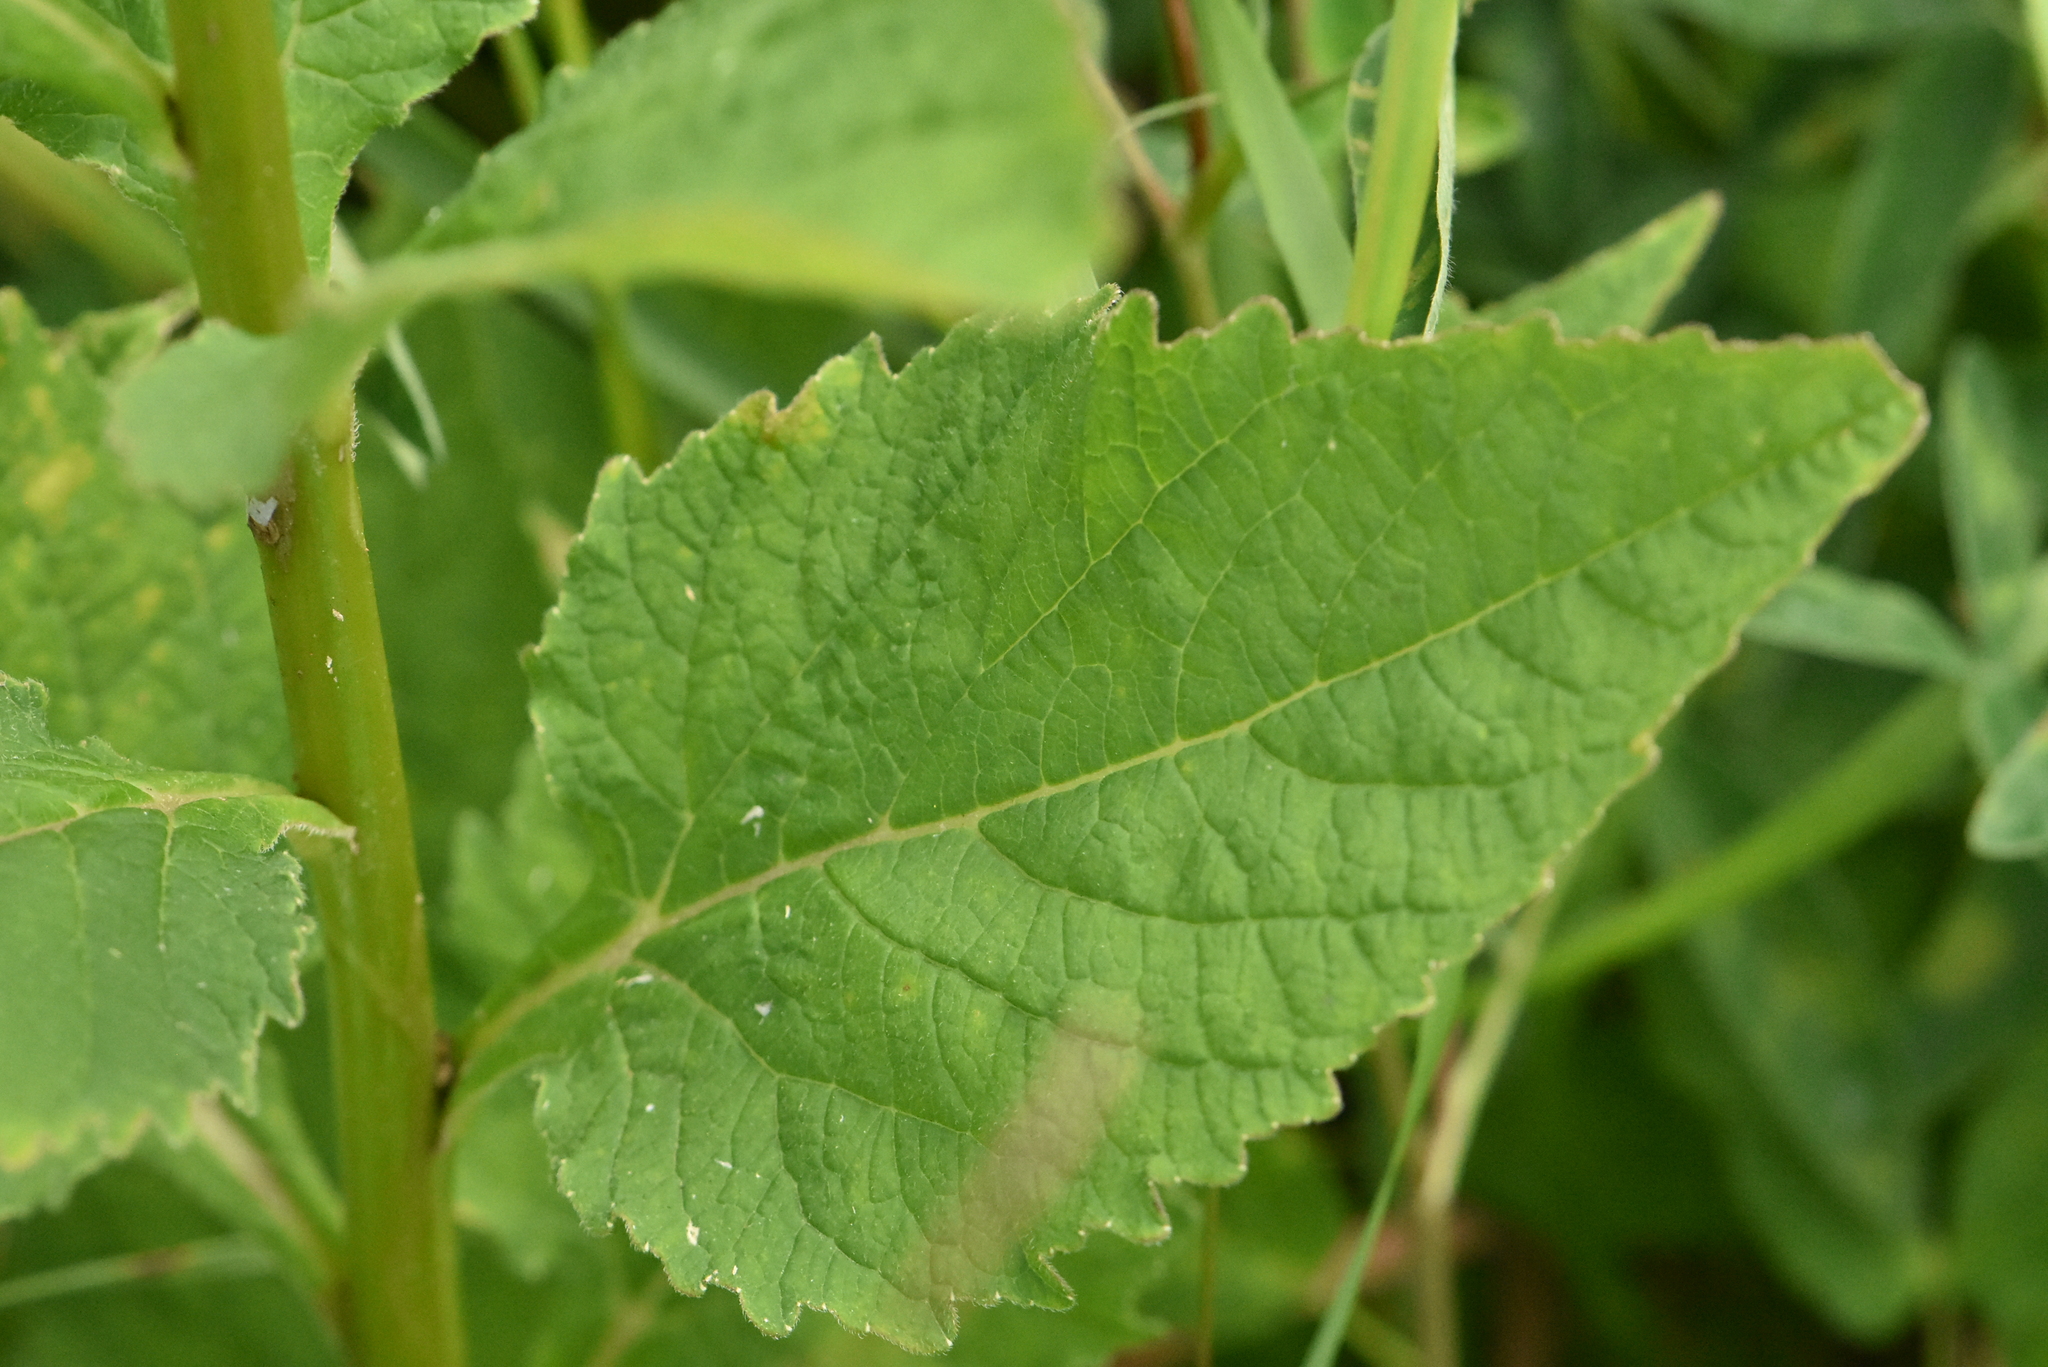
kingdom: Plantae
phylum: Tracheophyta
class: Magnoliopsida
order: Asterales
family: Campanulaceae
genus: Campanula
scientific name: Campanula latifolia
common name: Giant bellflower
